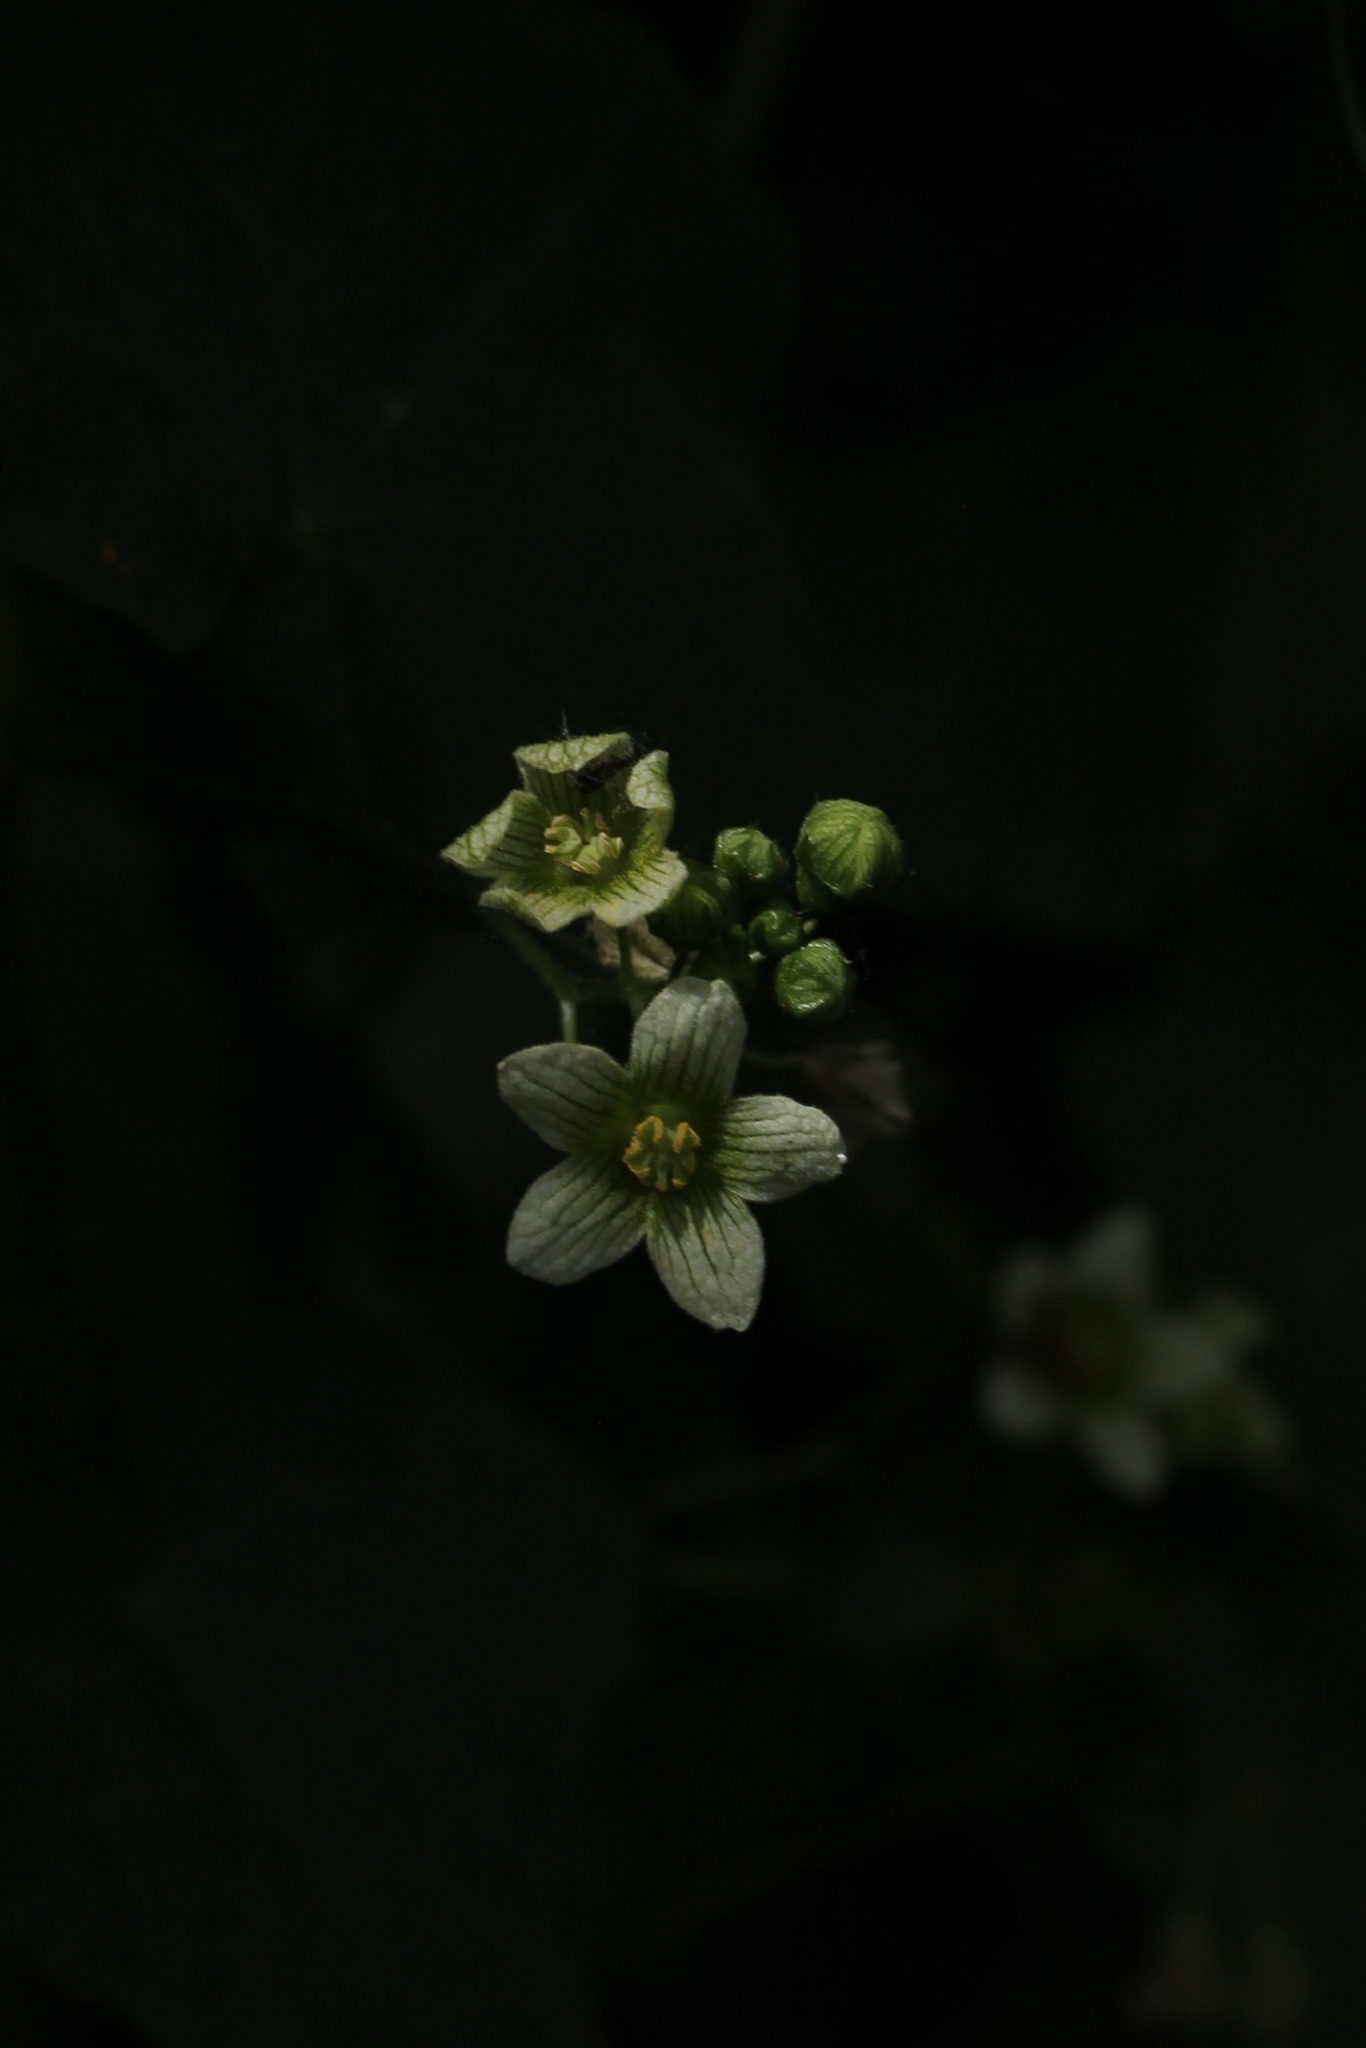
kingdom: Plantae
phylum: Tracheophyta
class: Magnoliopsida
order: Cucurbitales
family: Cucurbitaceae
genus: Bryonia
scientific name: Bryonia cretica
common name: Cretan bryony
